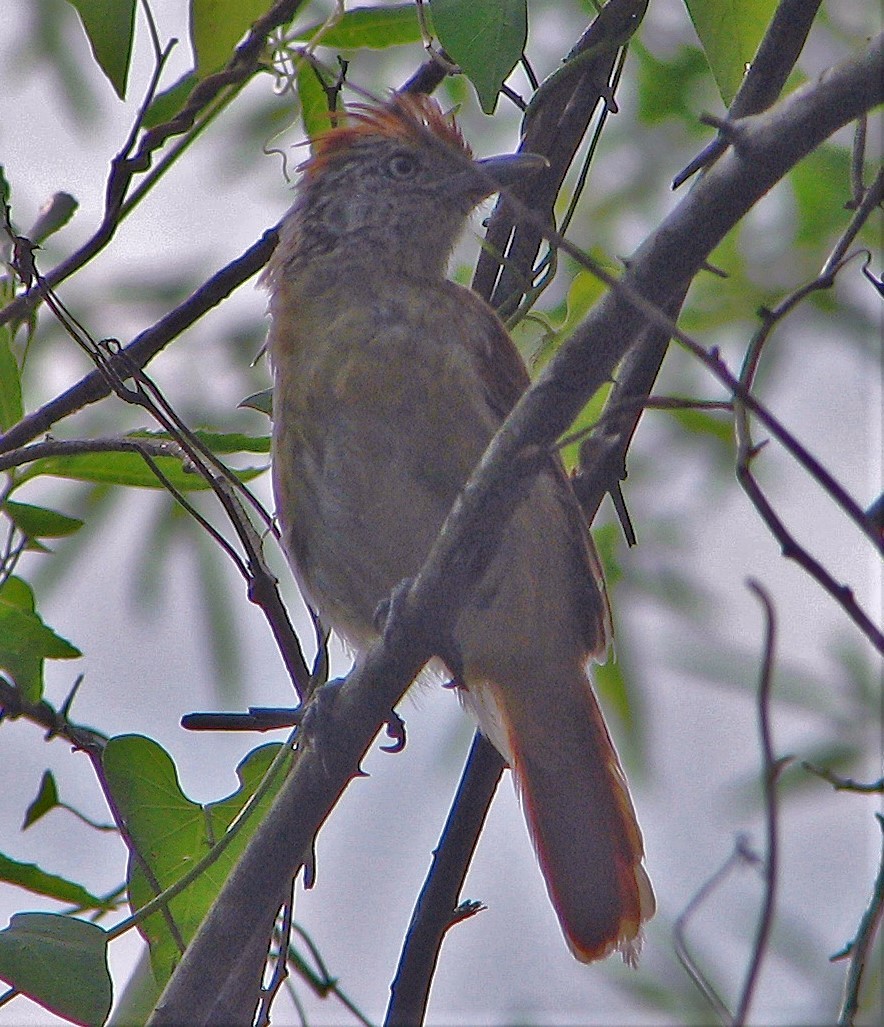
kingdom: Animalia
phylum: Chordata
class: Aves
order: Passeriformes
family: Thamnophilidae
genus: Thamnophilus
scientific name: Thamnophilus doliatus
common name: Barred antshrike
